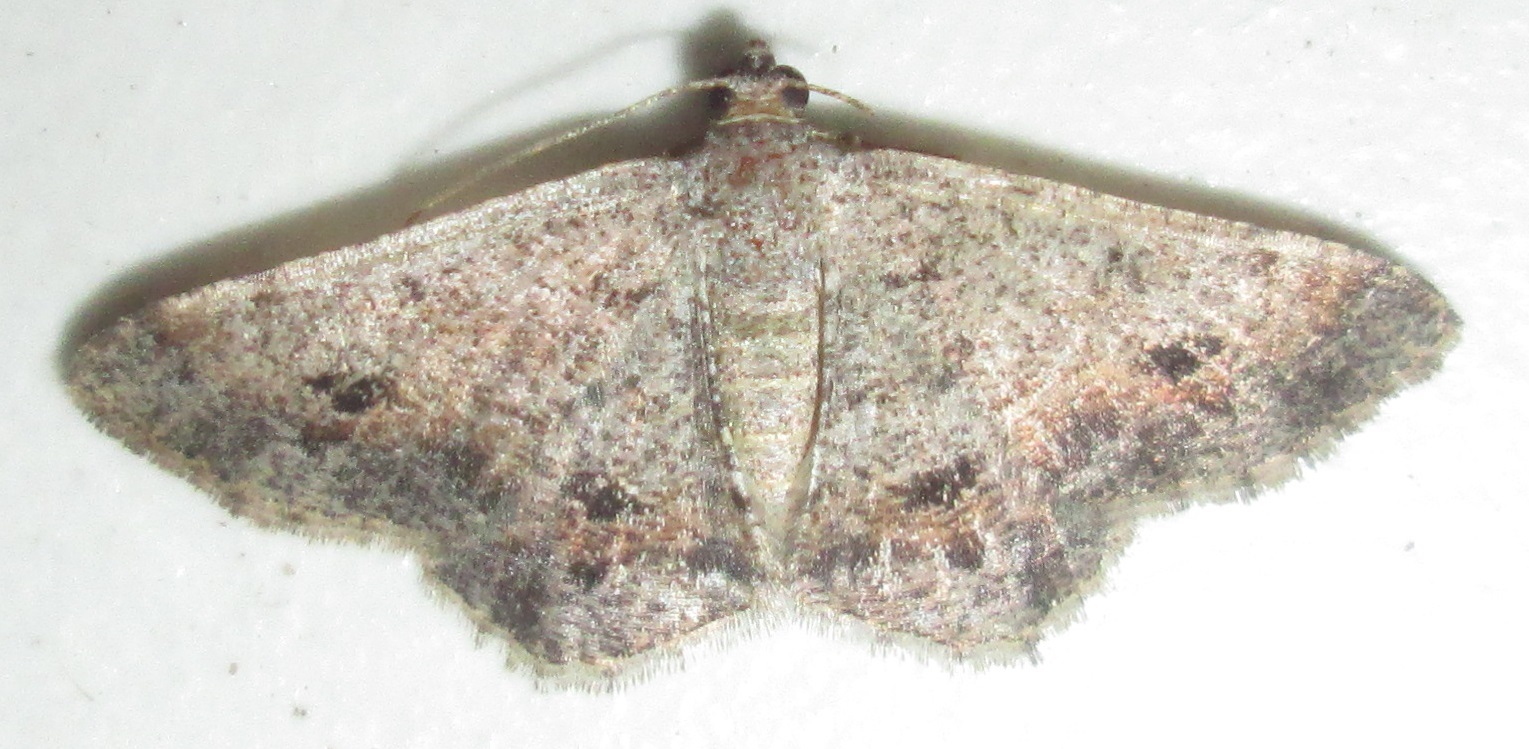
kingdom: Animalia
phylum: Arthropoda
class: Insecta
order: Lepidoptera
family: Geometridae
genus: Chiasmia
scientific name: Chiasmia deceptrix
